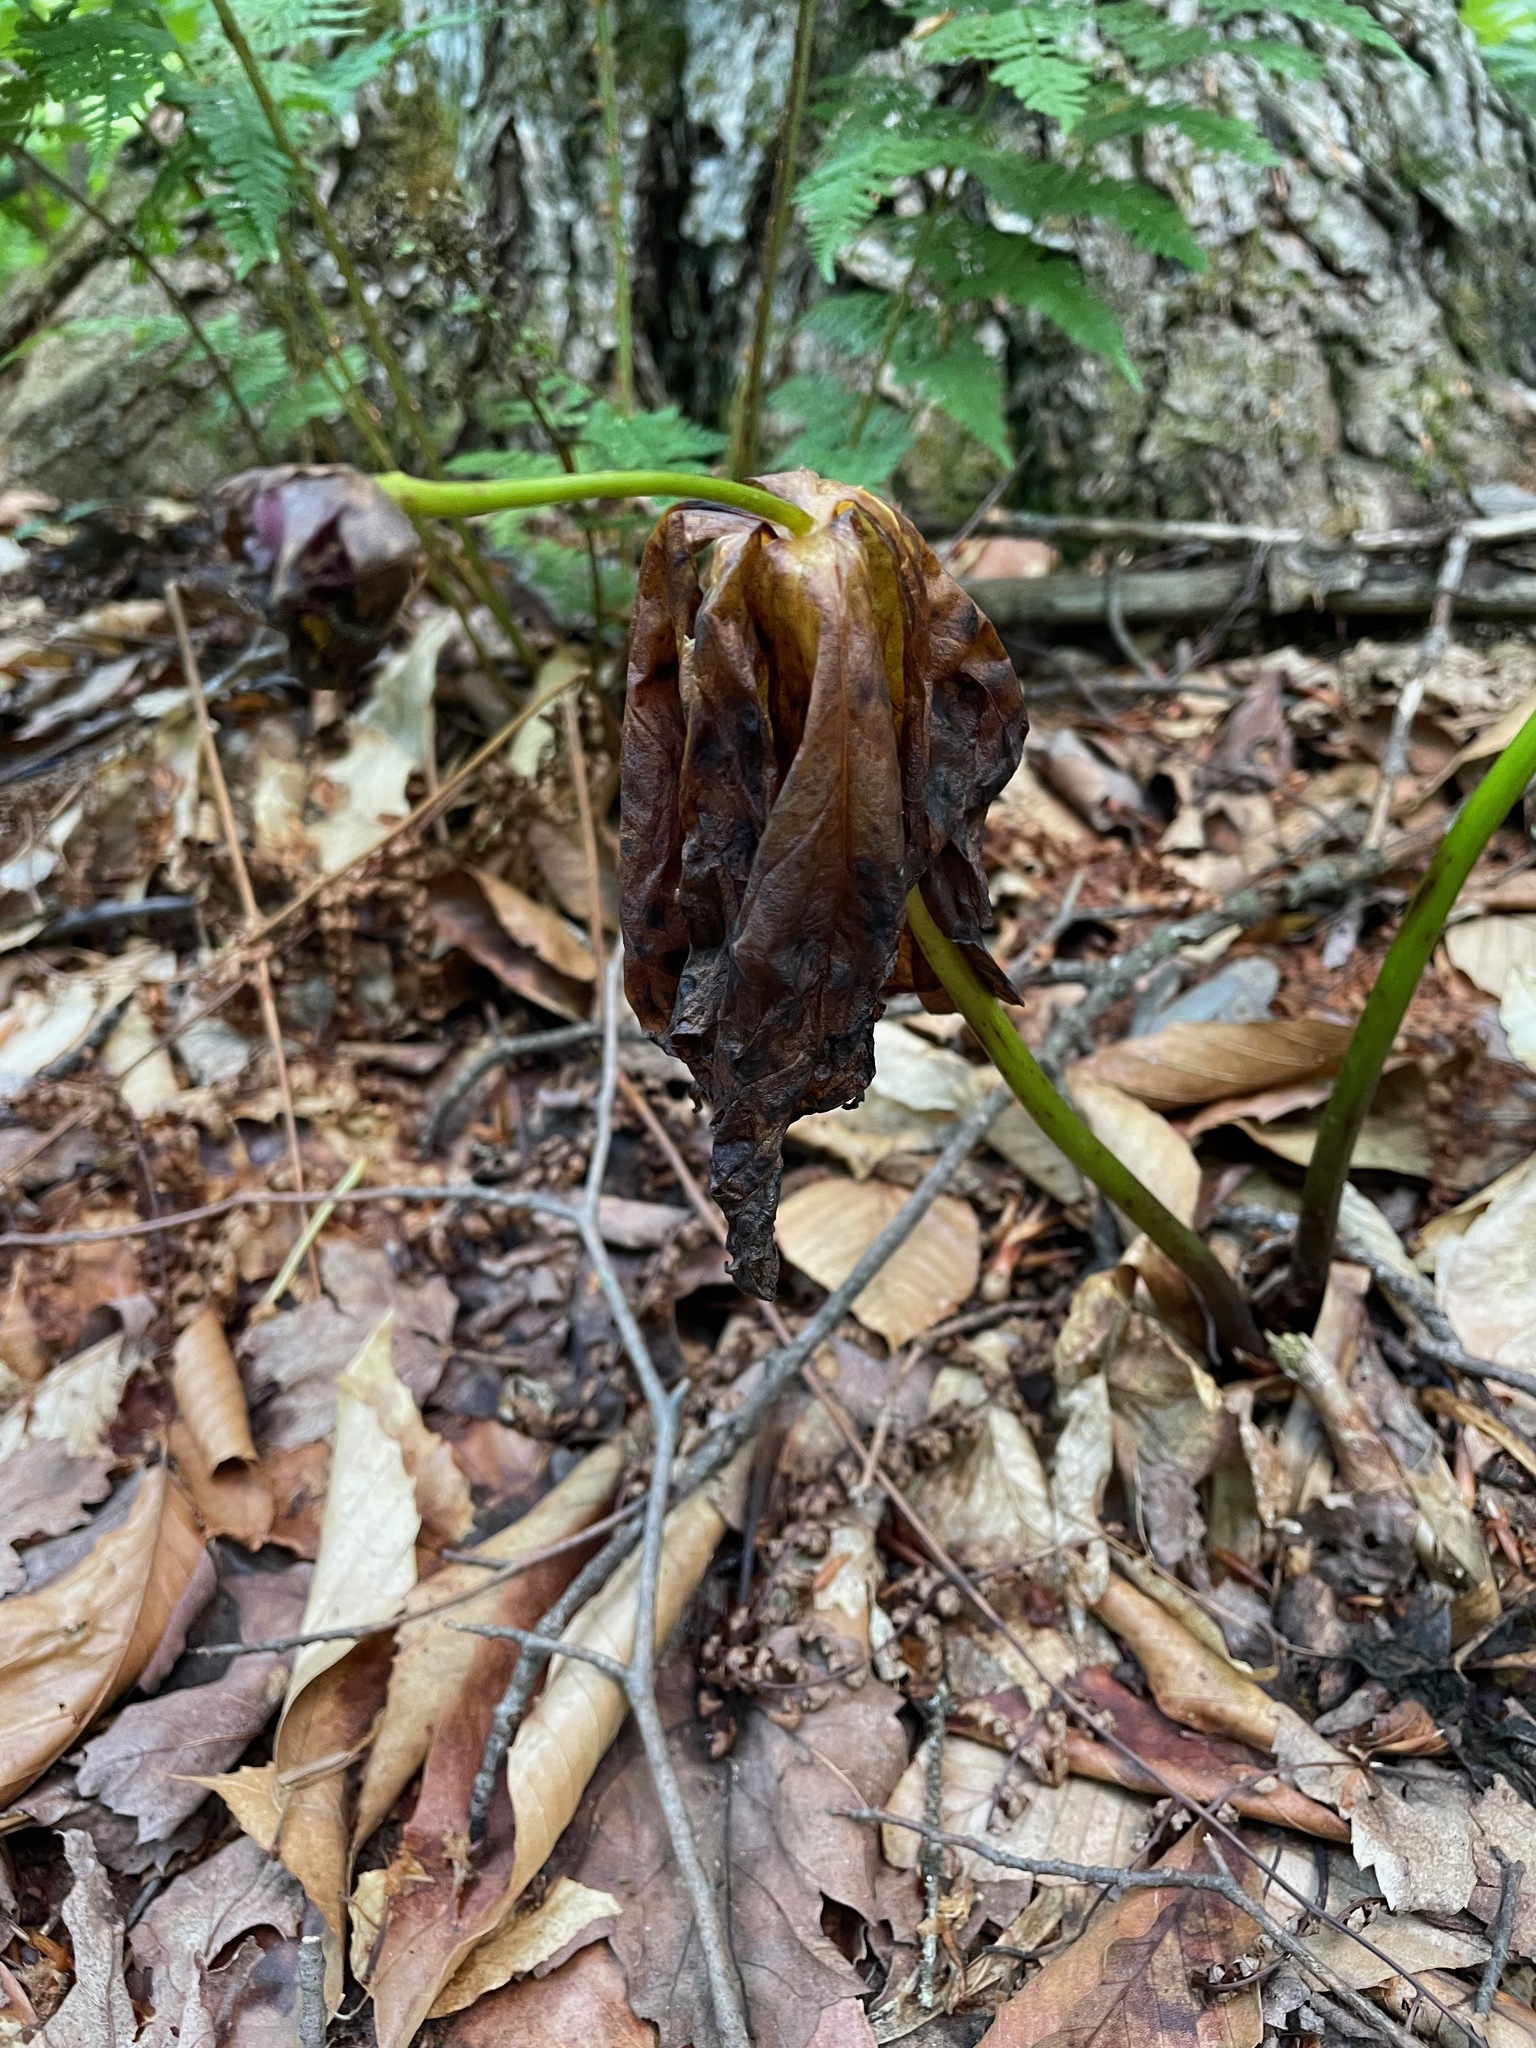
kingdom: Plantae
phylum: Tracheophyta
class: Liliopsida
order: Liliales
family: Melanthiaceae
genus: Trillium
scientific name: Trillium erectum
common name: Purple trillium
